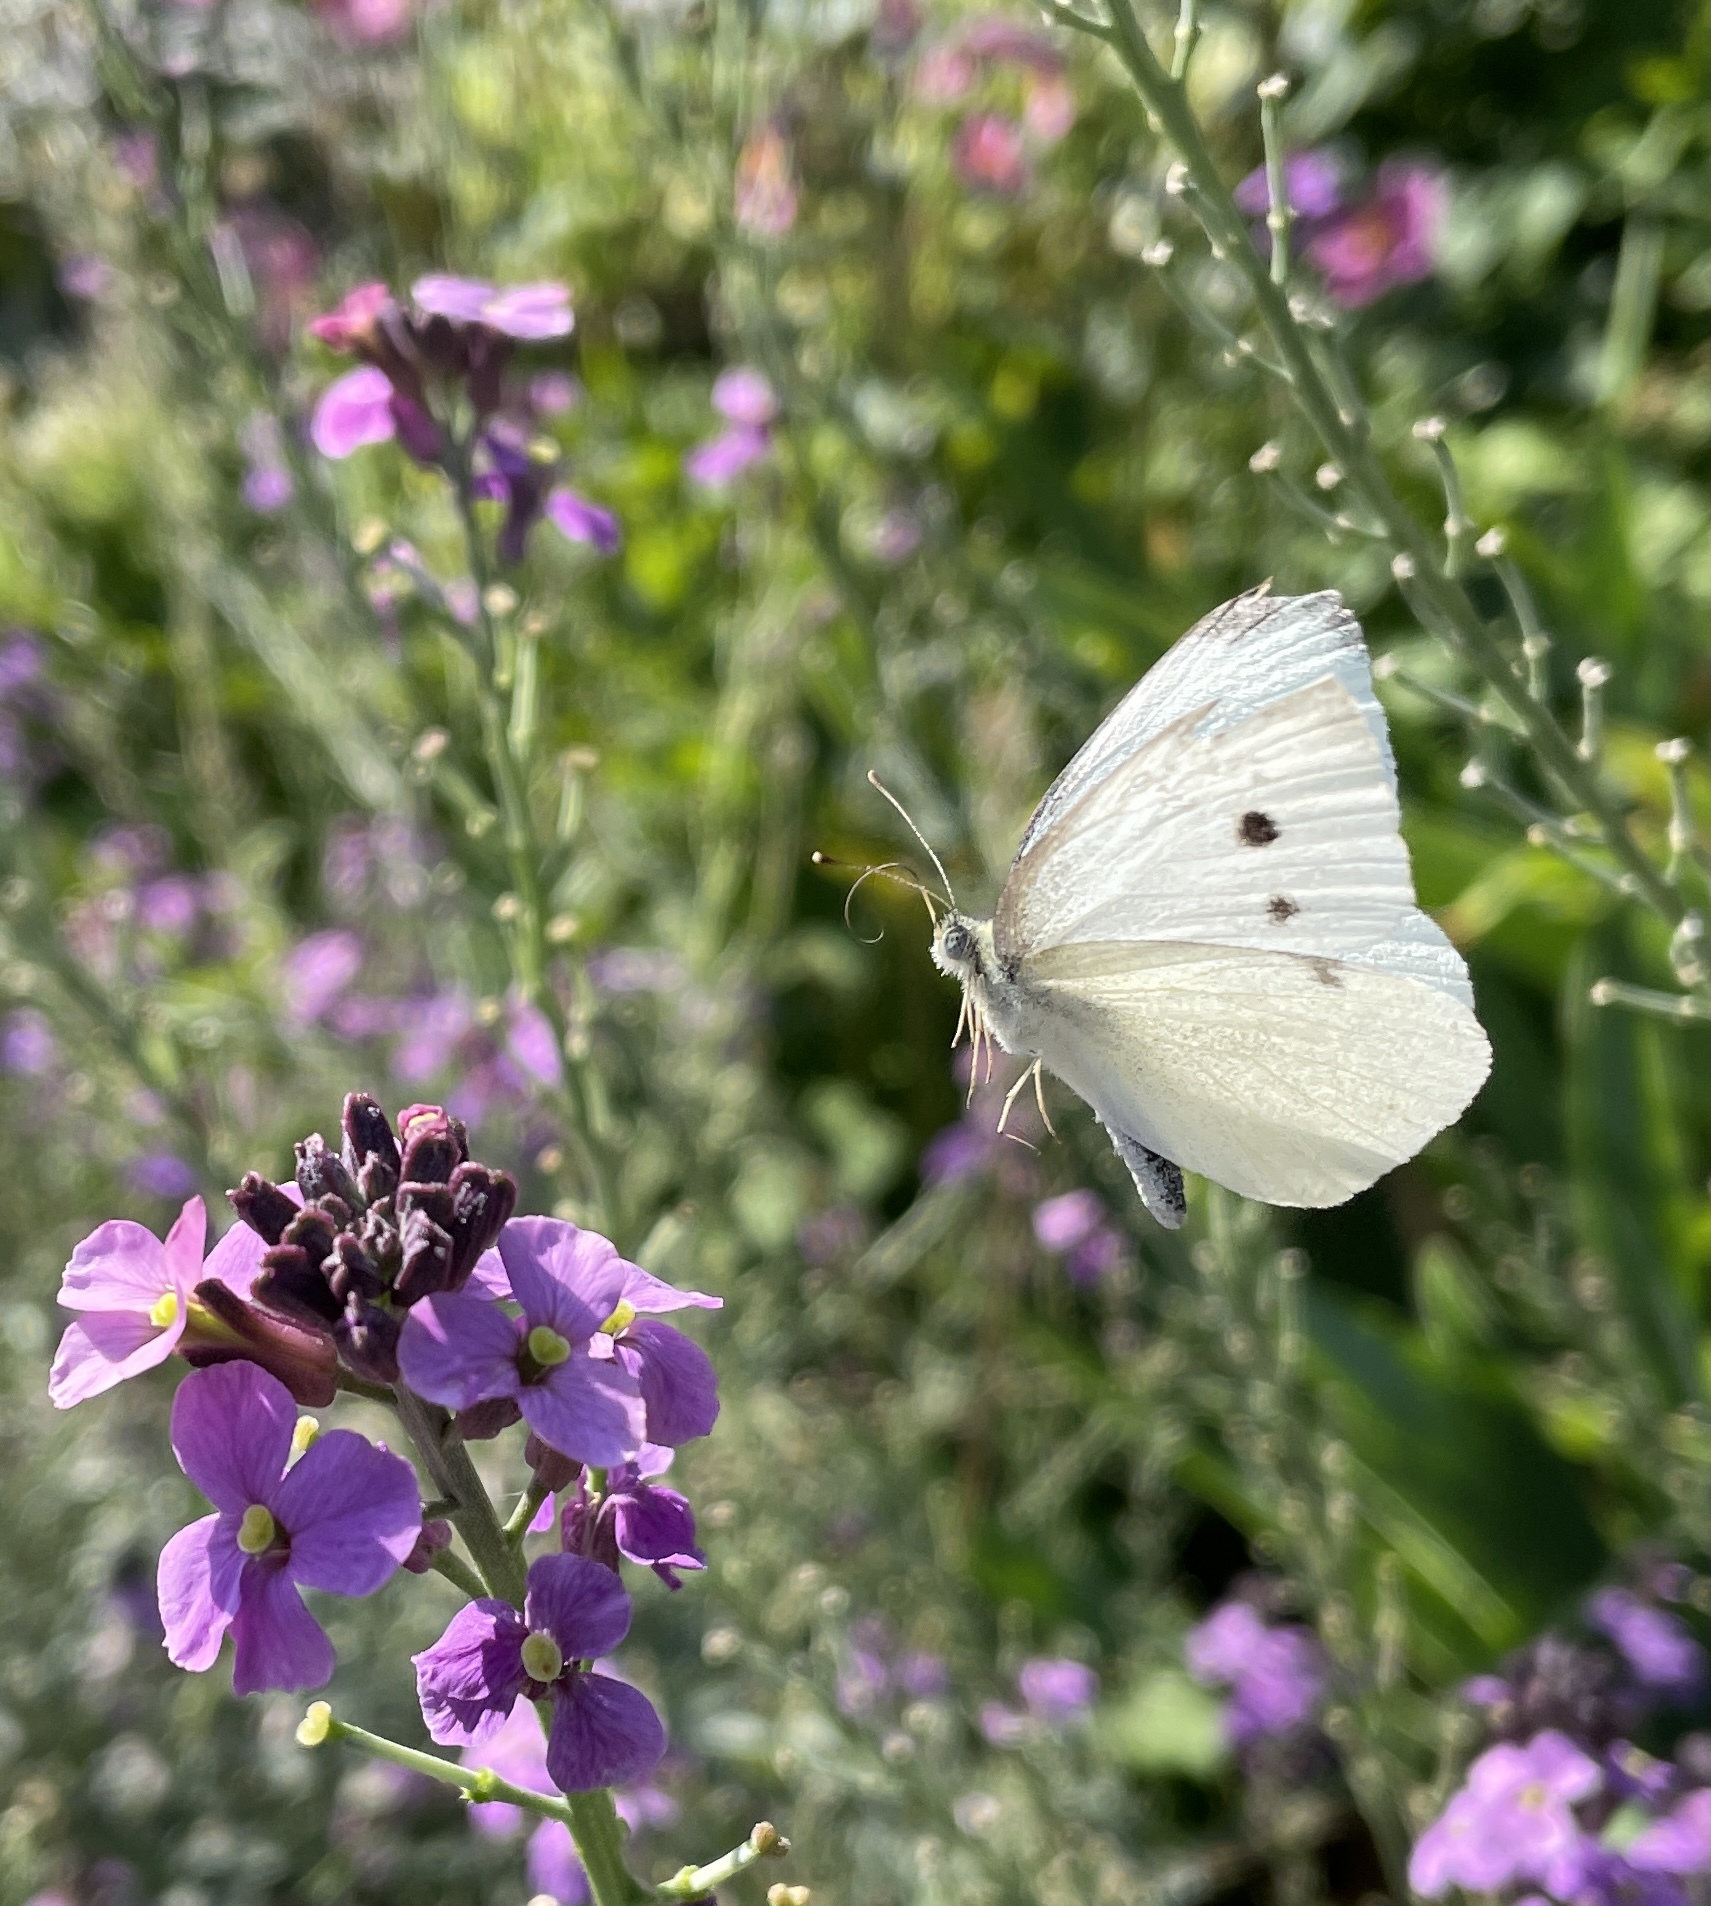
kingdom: Animalia
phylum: Arthropoda
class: Insecta
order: Lepidoptera
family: Pieridae
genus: Pieris
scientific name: Pieris rapae
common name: Small white
